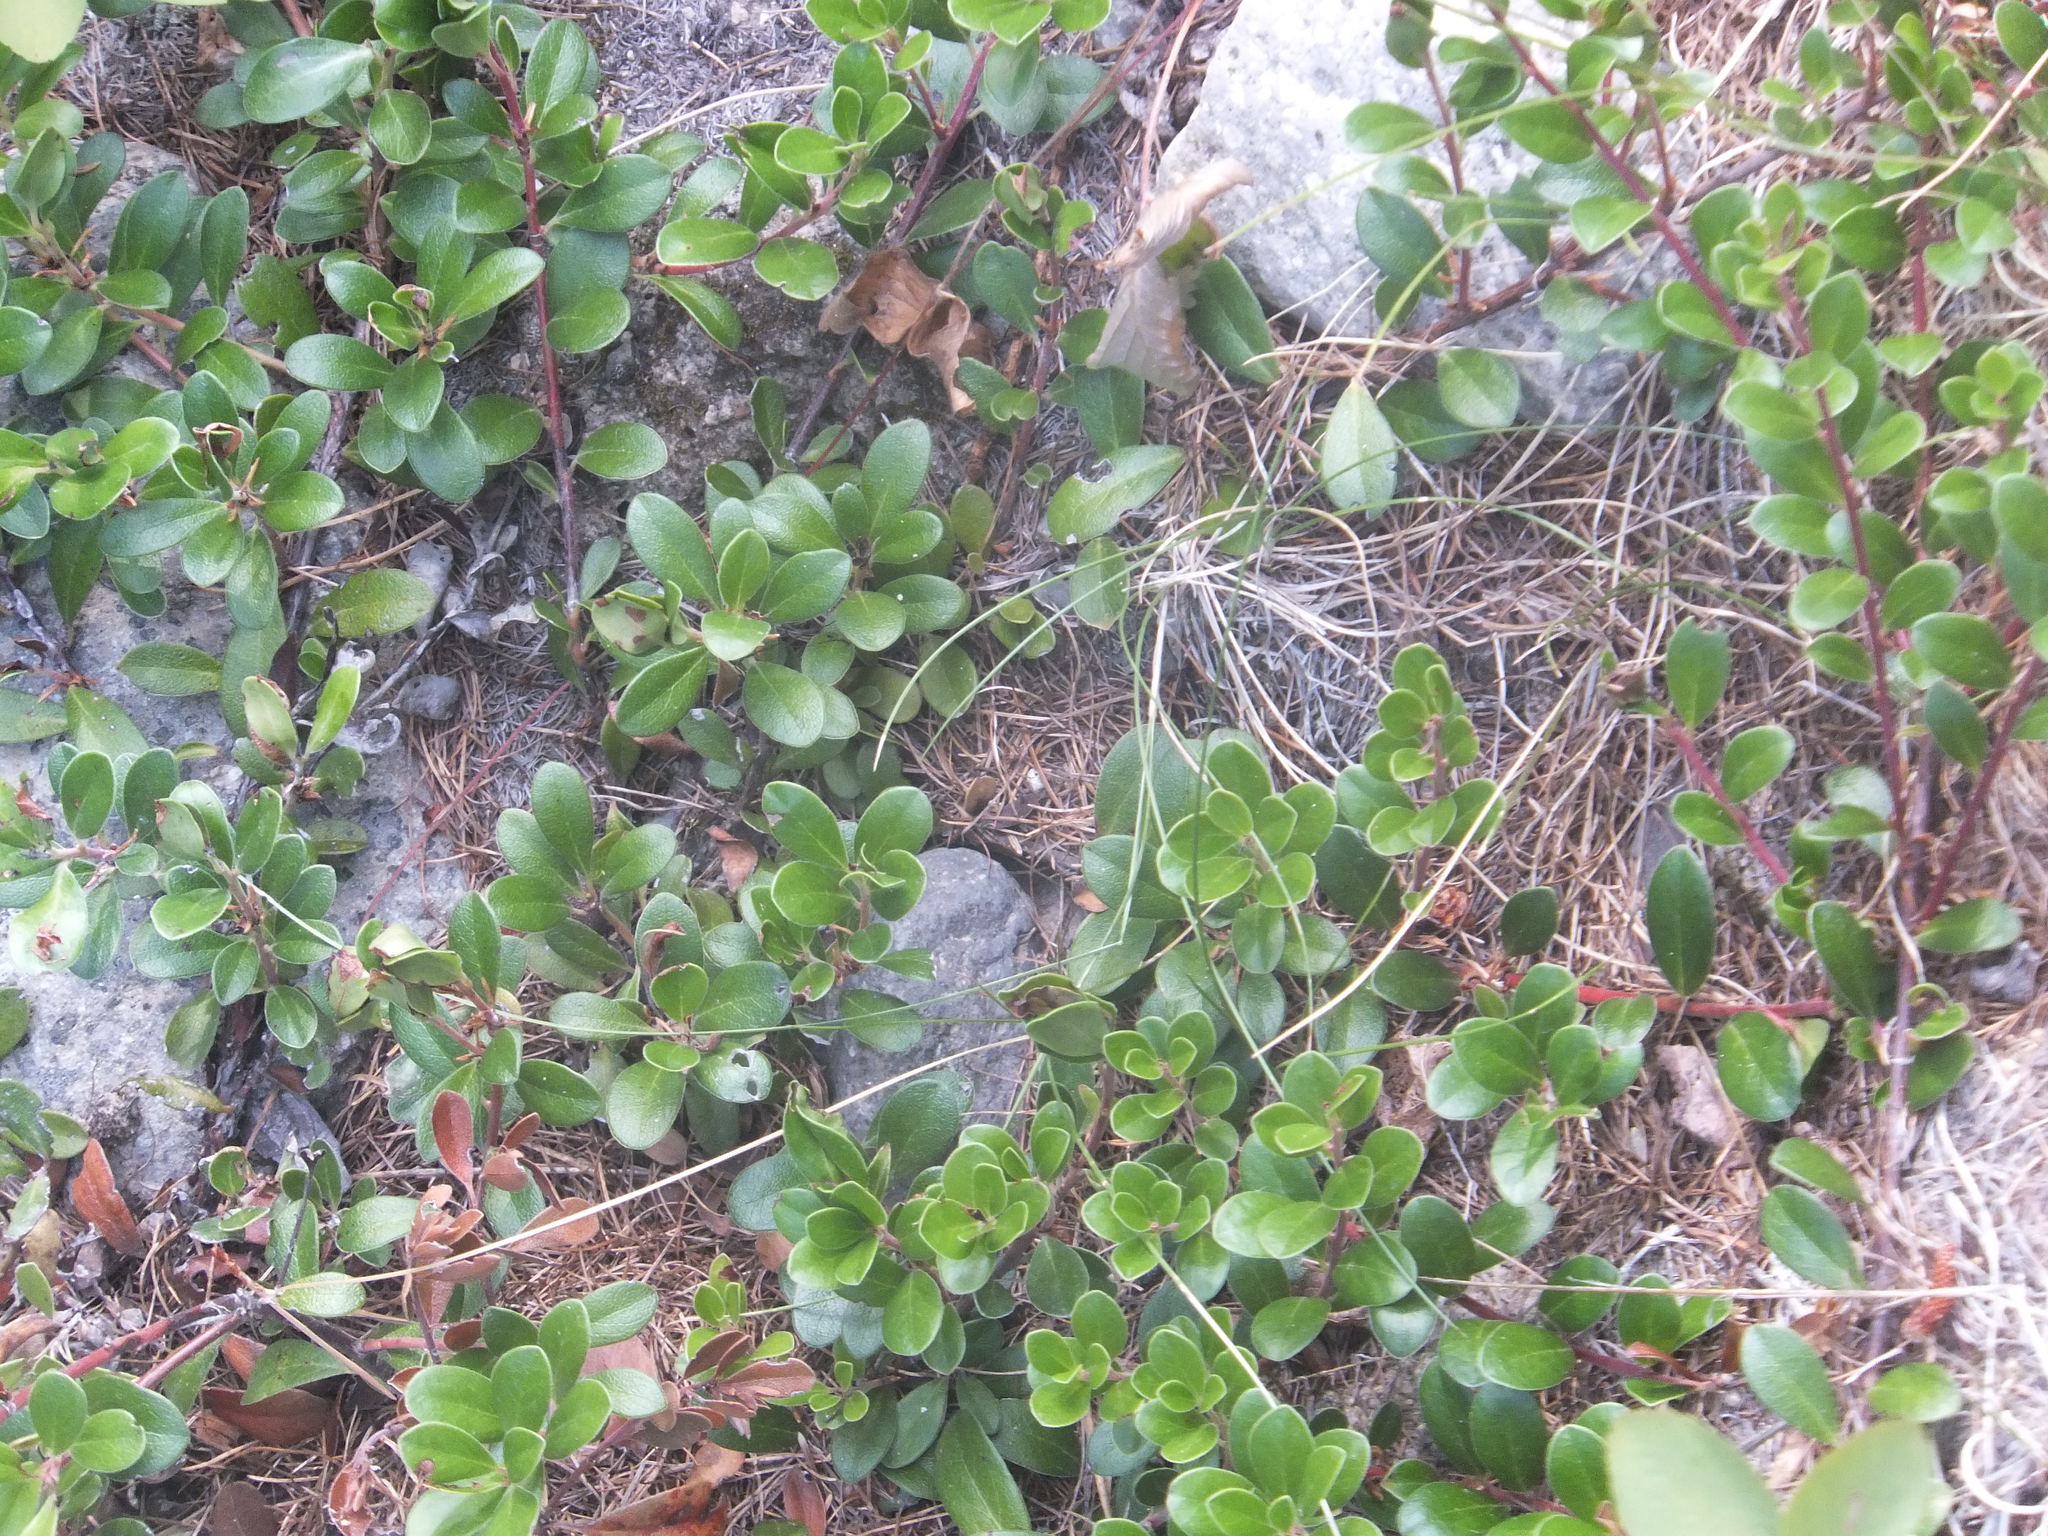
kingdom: Plantae
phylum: Tracheophyta
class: Magnoliopsida
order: Ericales
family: Ericaceae
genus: Arctostaphylos
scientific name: Arctostaphylos uva-ursi
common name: Bearberry
